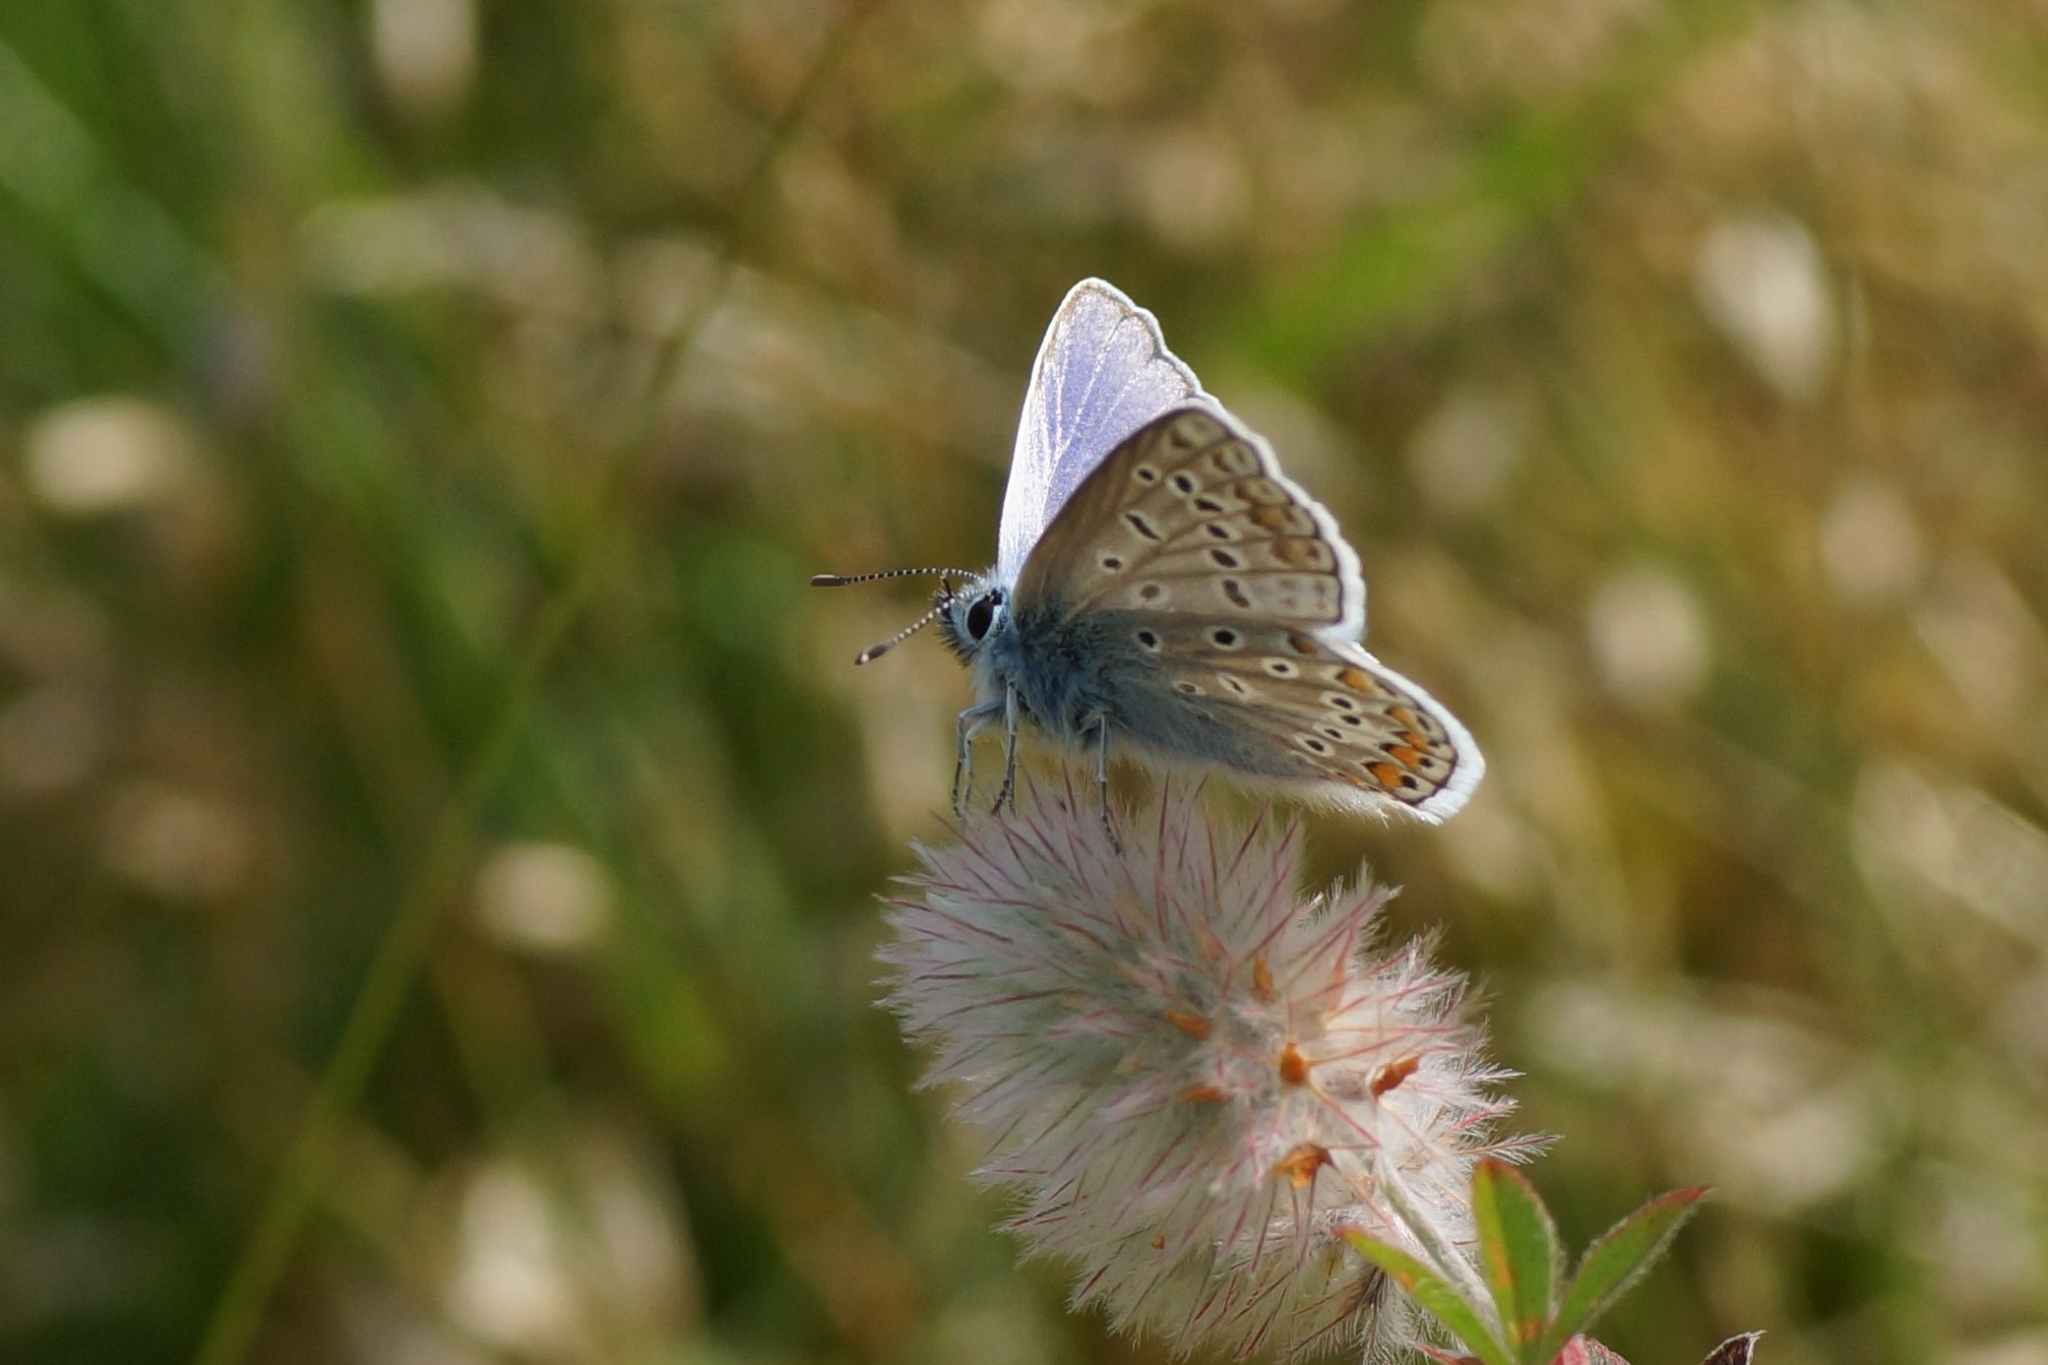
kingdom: Animalia
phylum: Arthropoda
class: Insecta
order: Lepidoptera
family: Lycaenidae
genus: Polyommatus
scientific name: Polyommatus icarus
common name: Common blue
